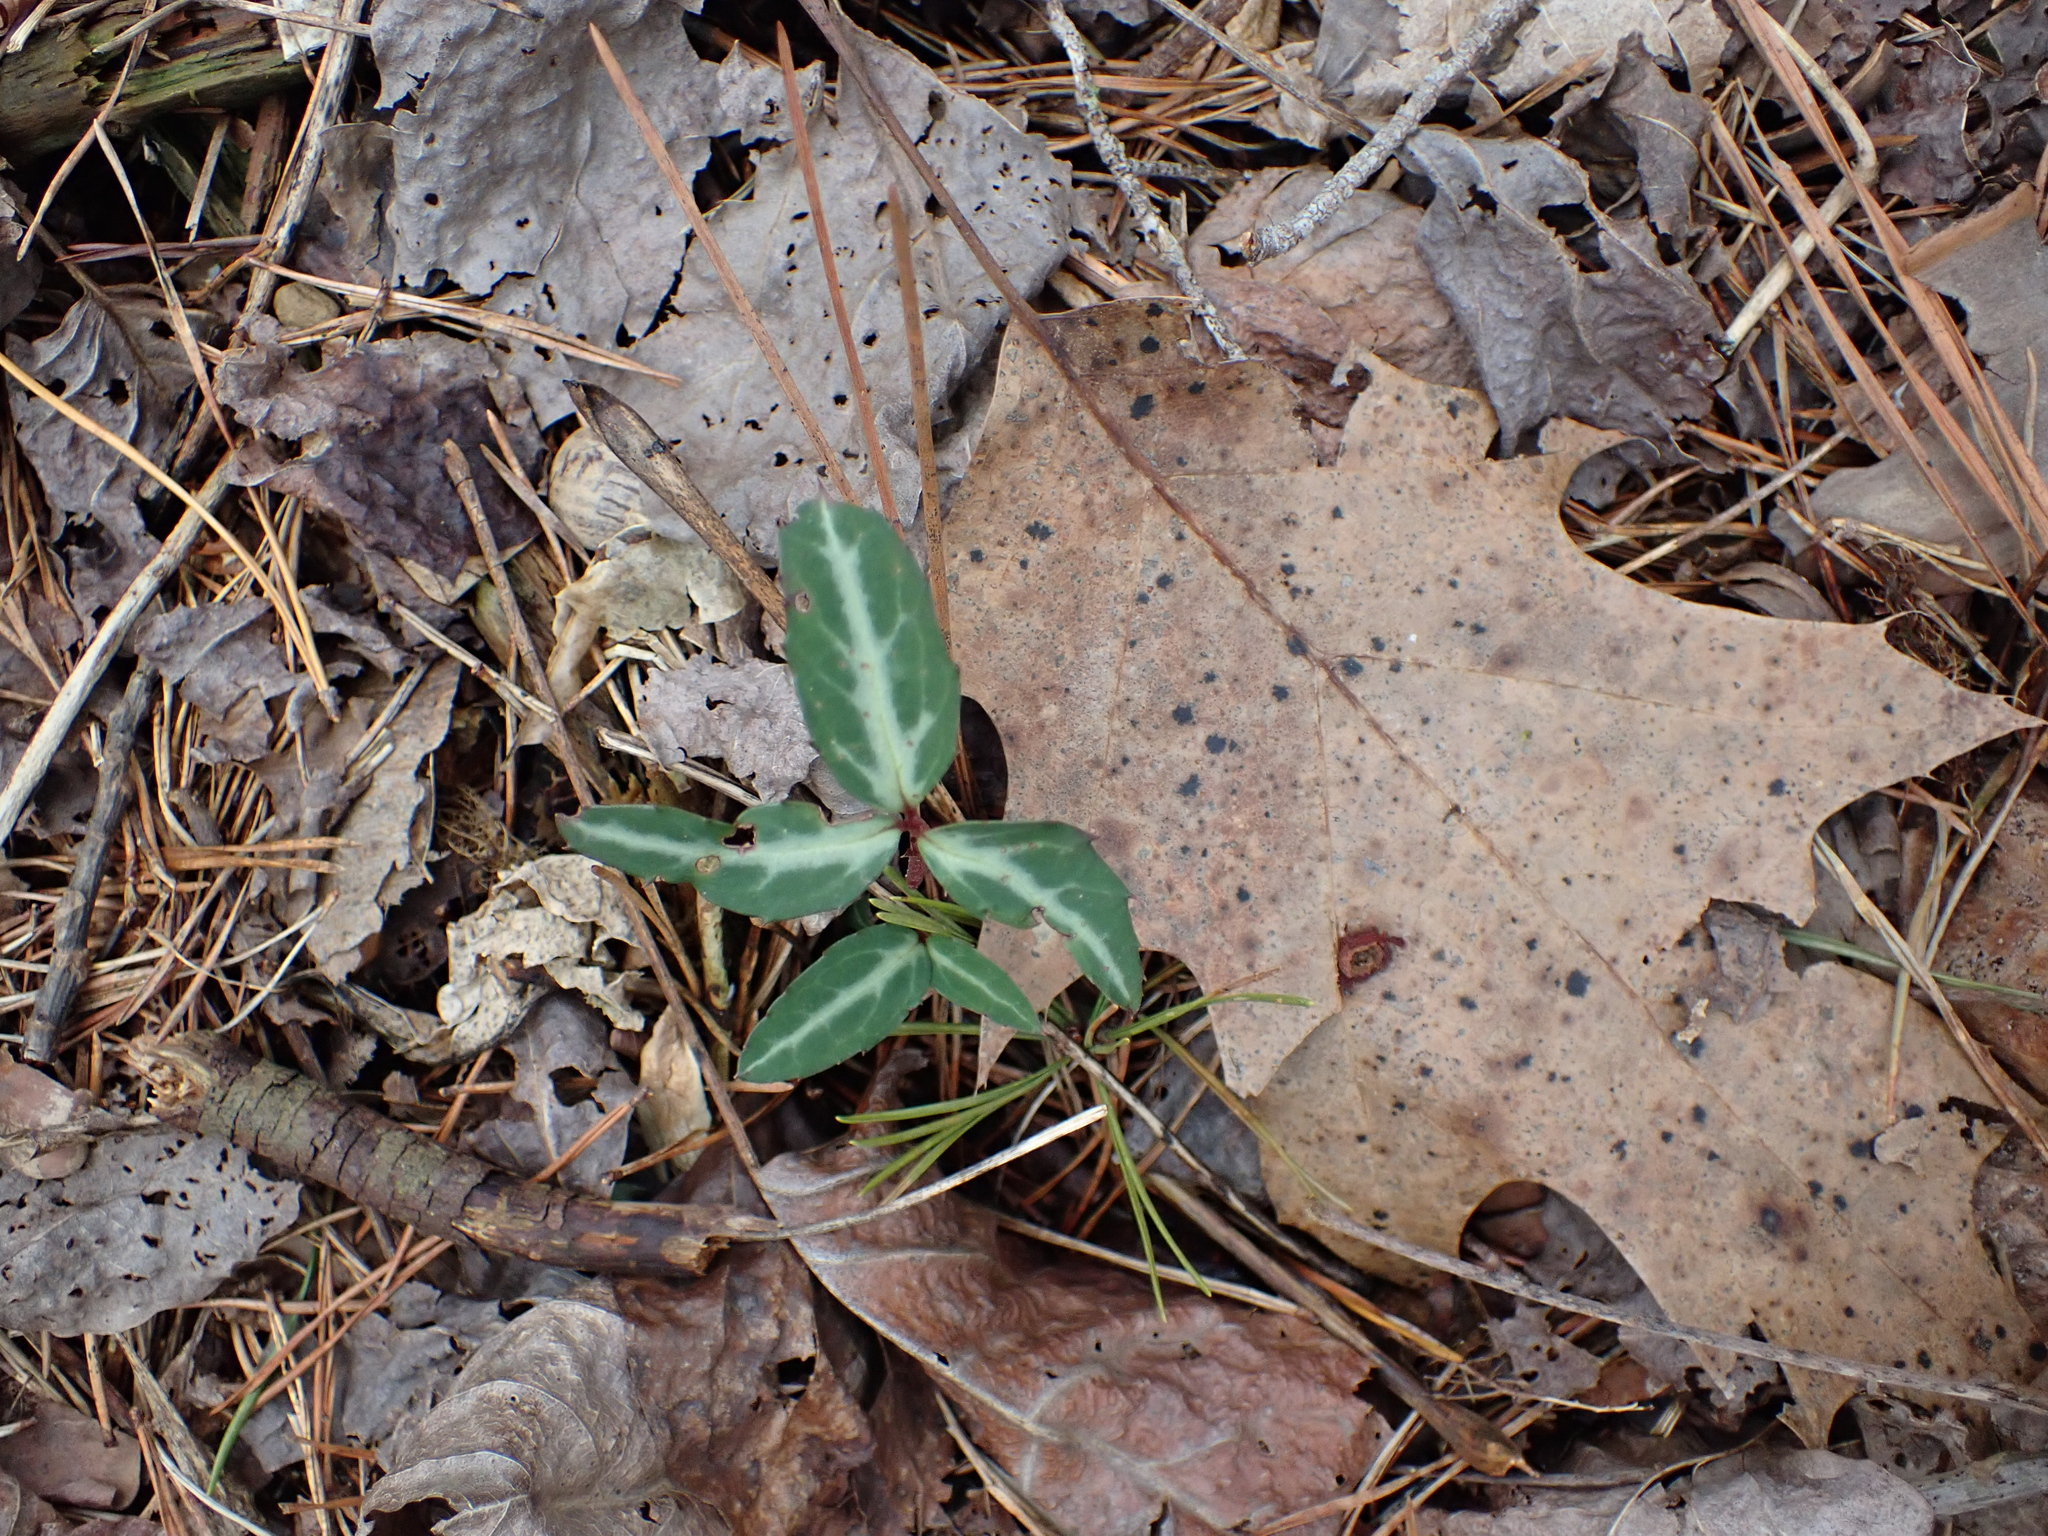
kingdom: Plantae
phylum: Tracheophyta
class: Magnoliopsida
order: Ericales
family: Ericaceae
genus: Chimaphila
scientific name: Chimaphila maculata
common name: Spotted pipsissewa
